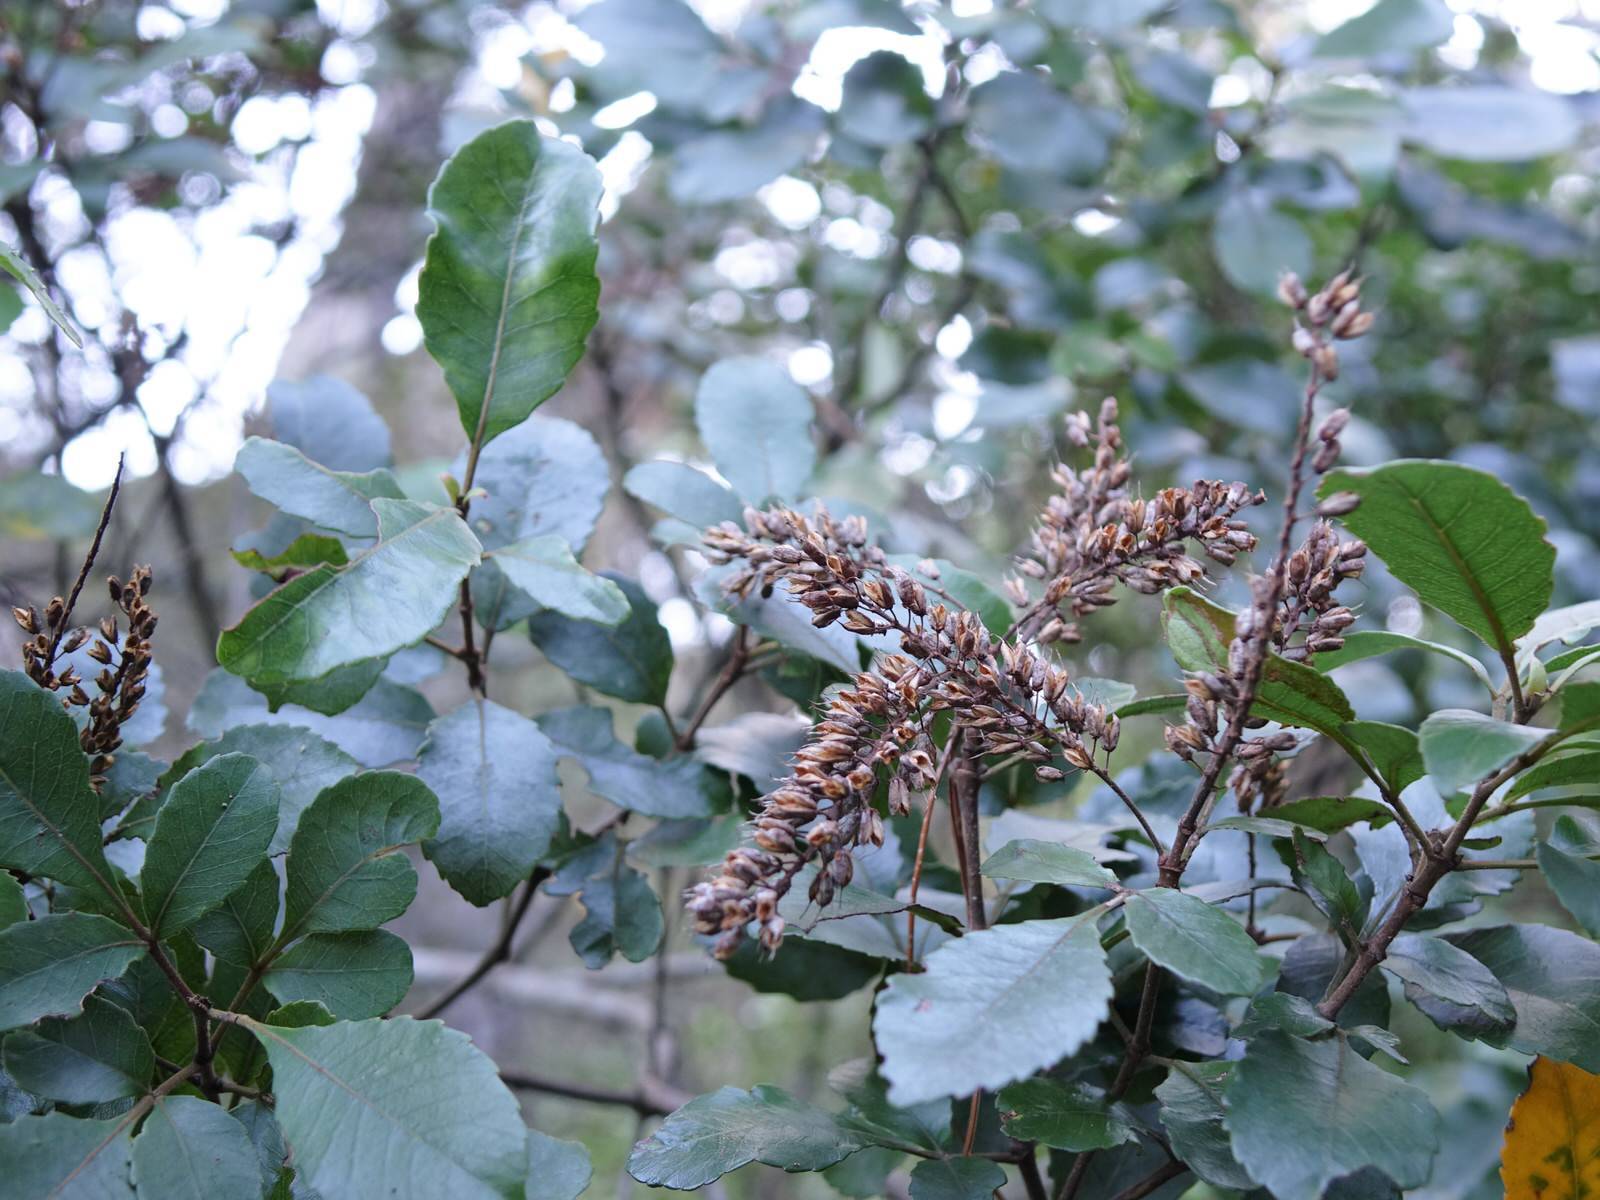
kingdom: Plantae
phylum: Tracheophyta
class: Magnoliopsida
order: Oxalidales
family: Cunoniaceae
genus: Pterophylla
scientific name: Pterophylla sylvicola
